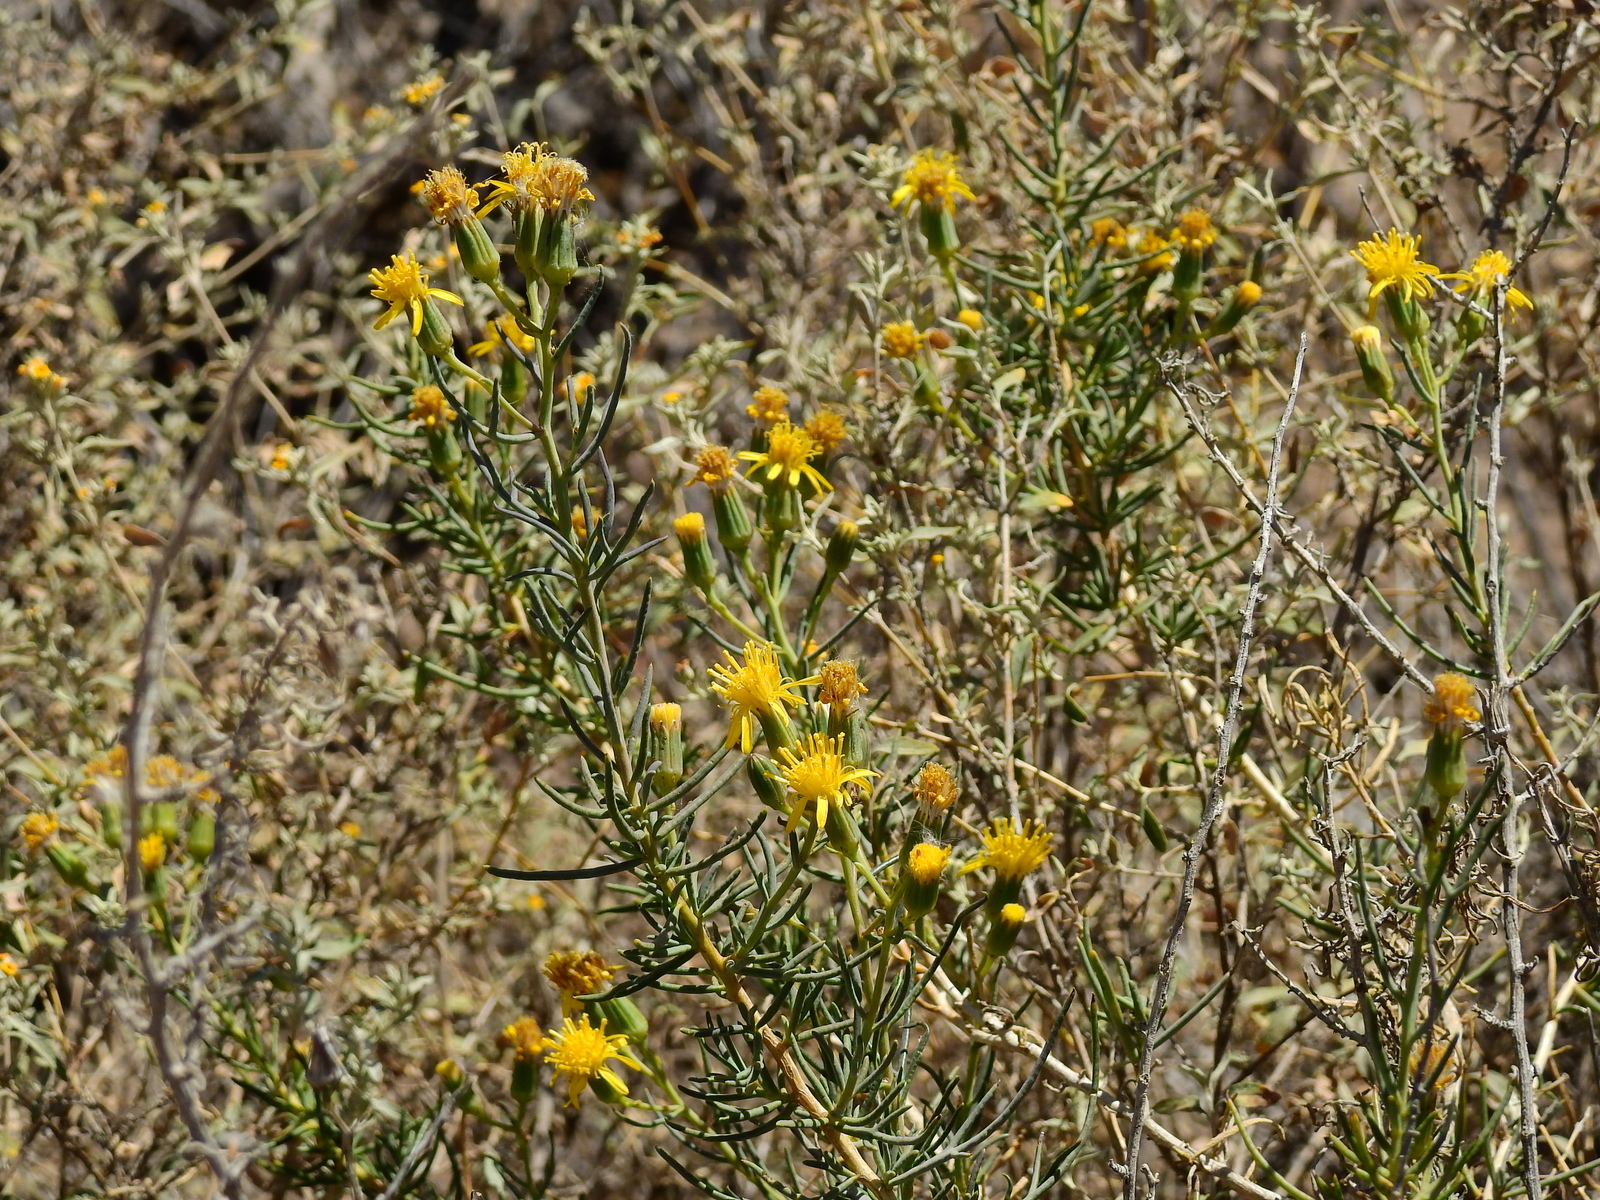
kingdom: Plantae
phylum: Tracheophyta
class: Magnoliopsida
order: Asterales
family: Asteraceae
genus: Senecio
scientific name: Senecio subulatus
